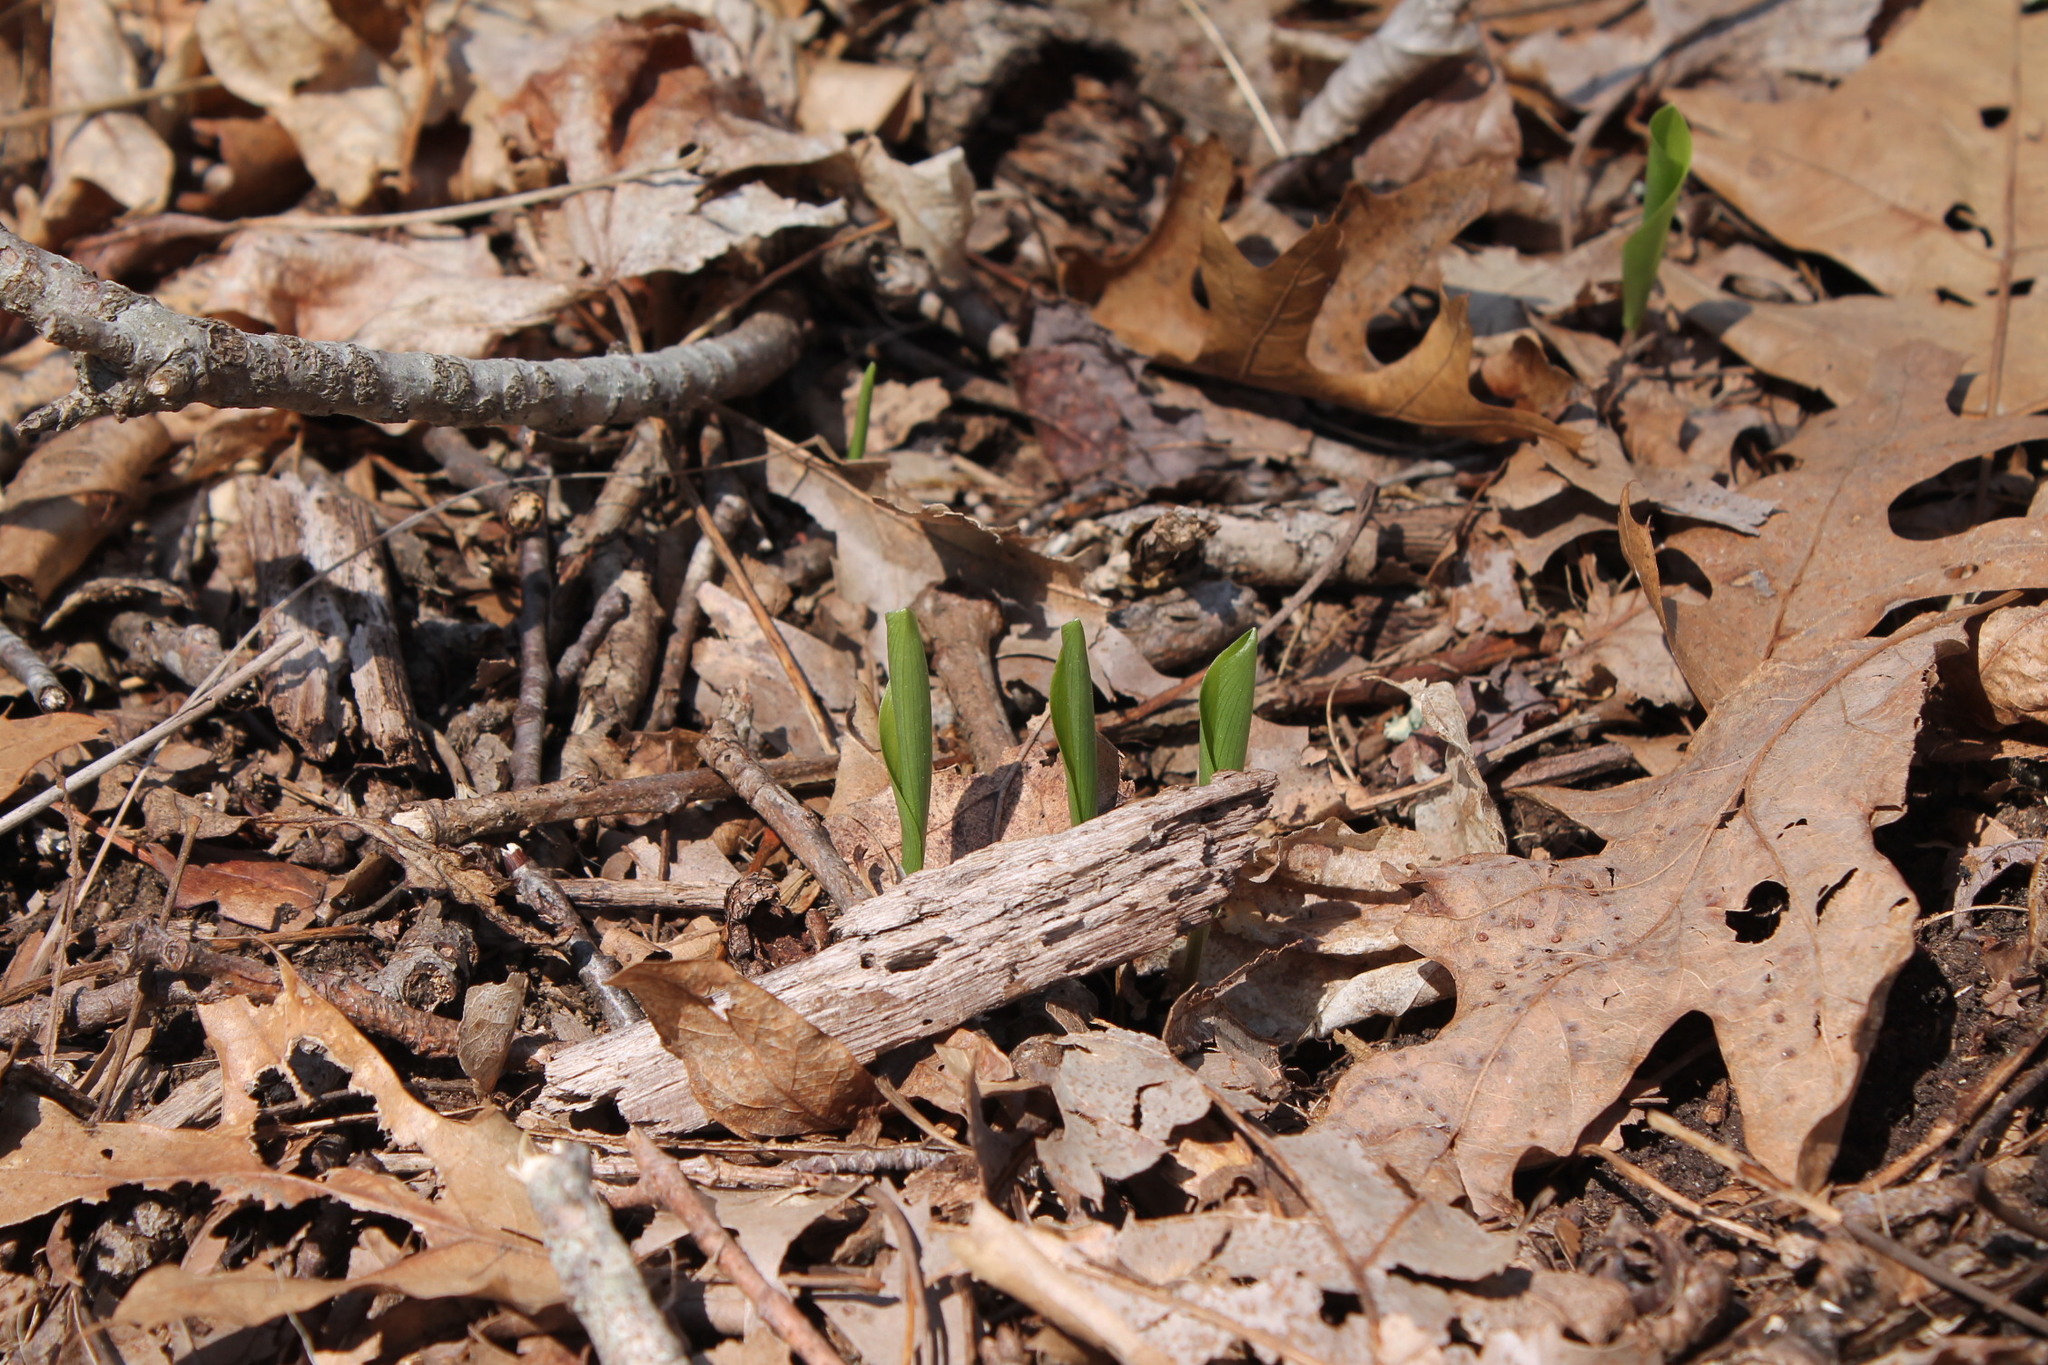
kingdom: Plantae
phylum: Tracheophyta
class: Liliopsida
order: Asparagales
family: Asparagaceae
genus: Maianthemum
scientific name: Maianthemum canadense
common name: False lily-of-the-valley
